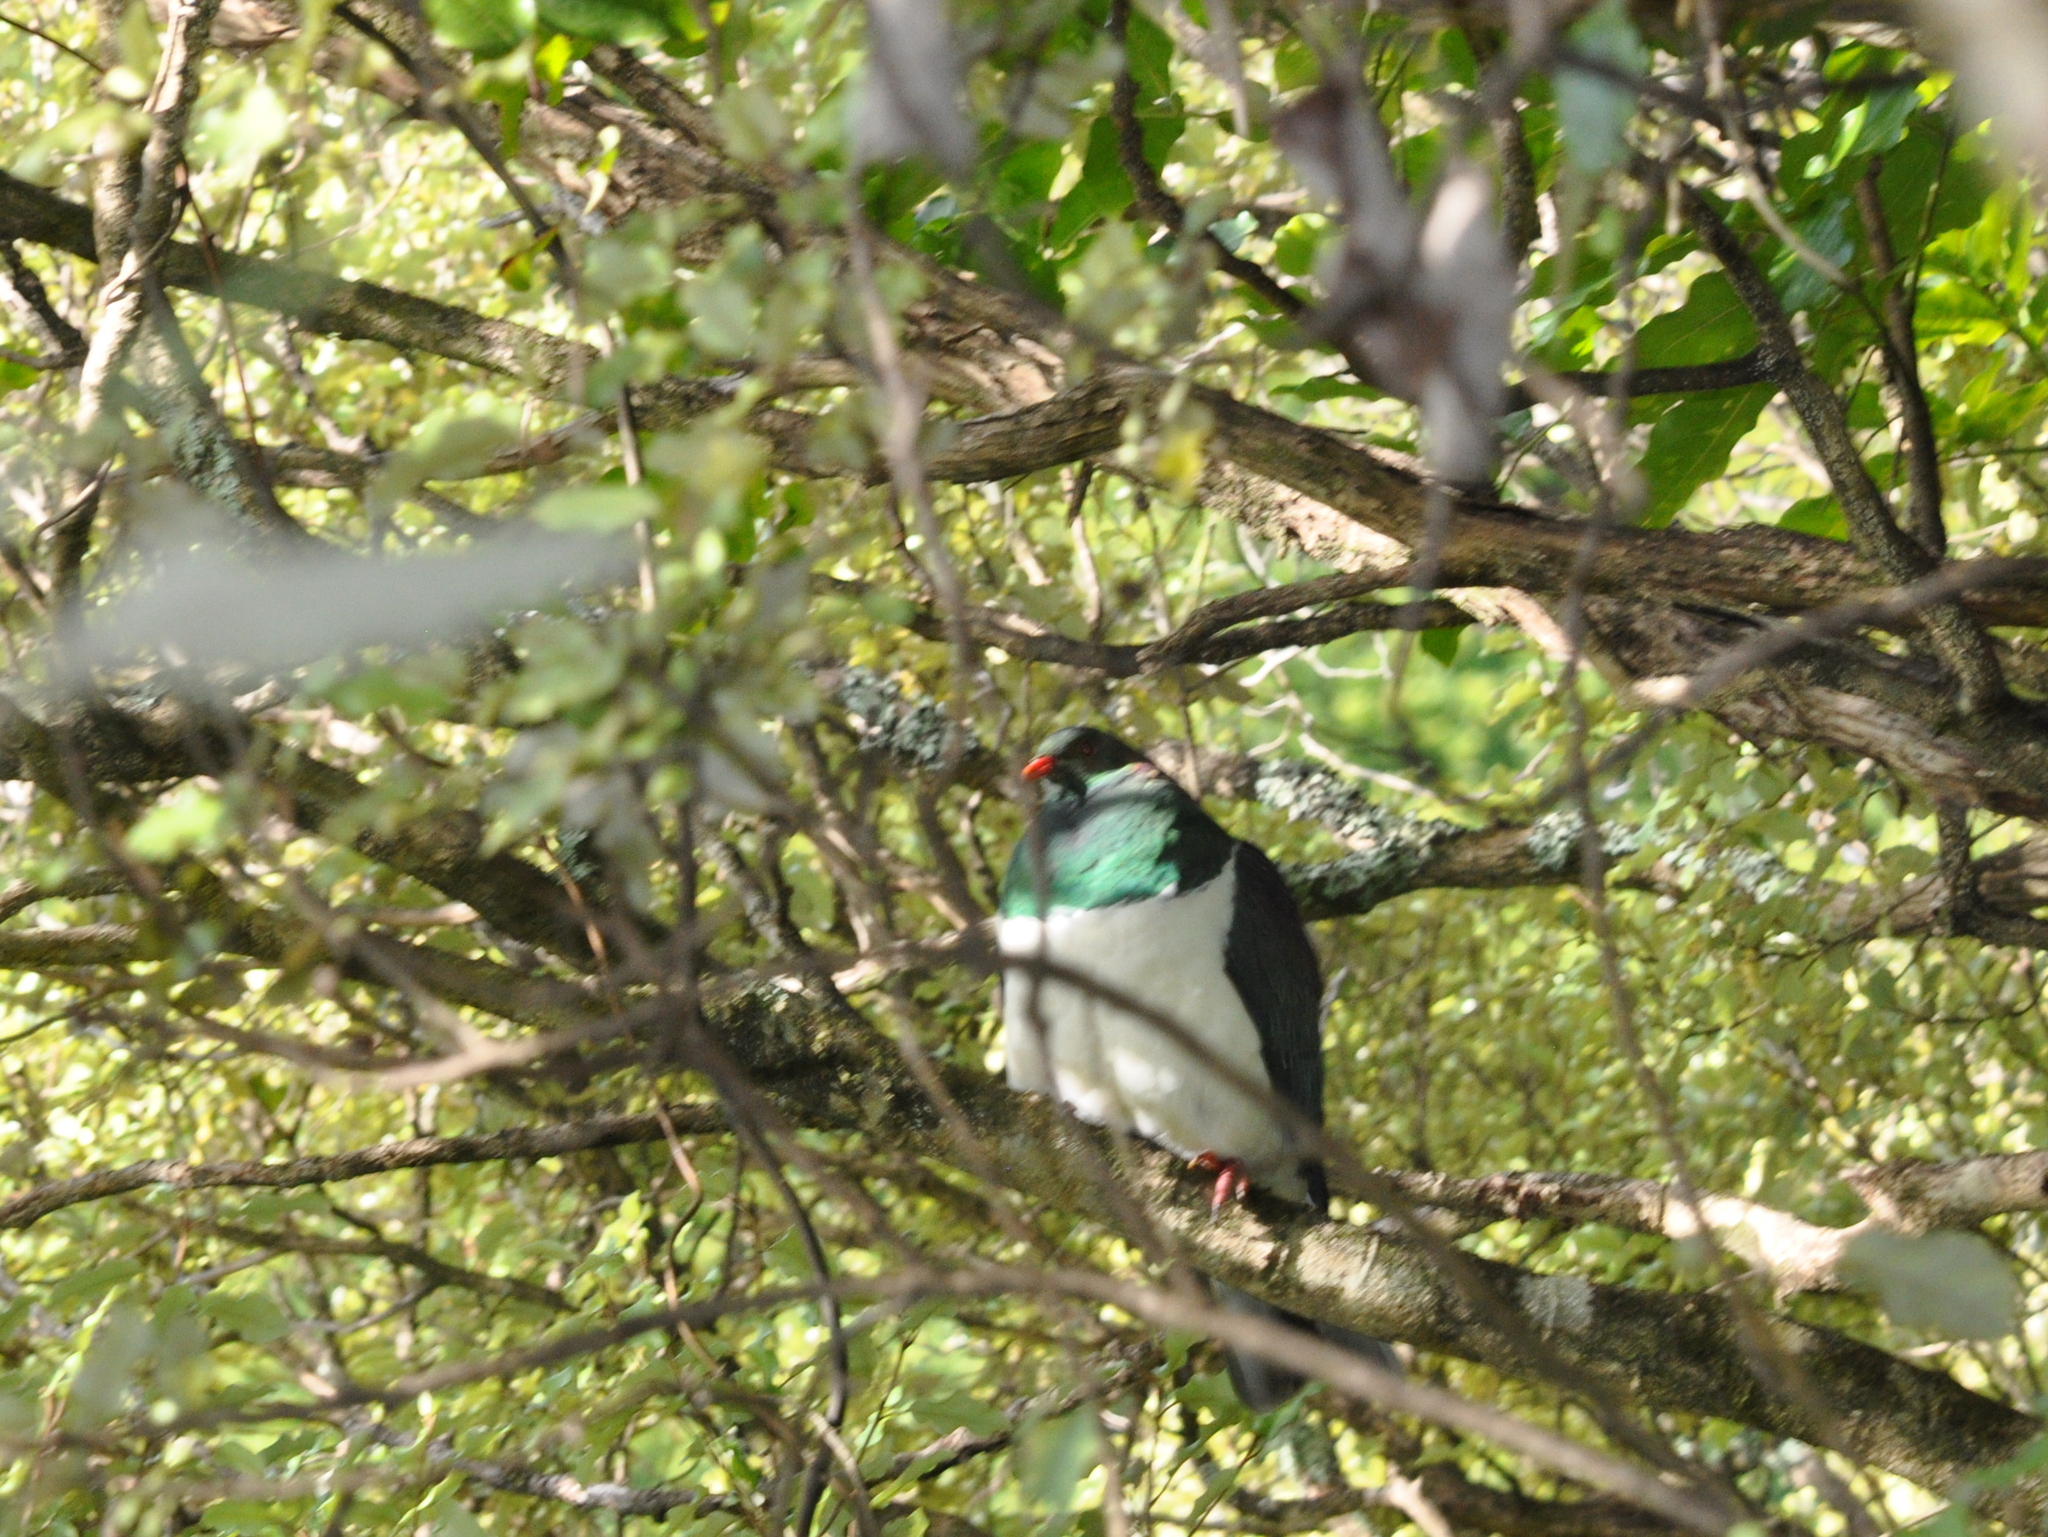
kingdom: Animalia
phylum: Chordata
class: Aves
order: Columbiformes
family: Columbidae
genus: Hemiphaga
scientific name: Hemiphaga novaeseelandiae
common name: New zealand pigeon
